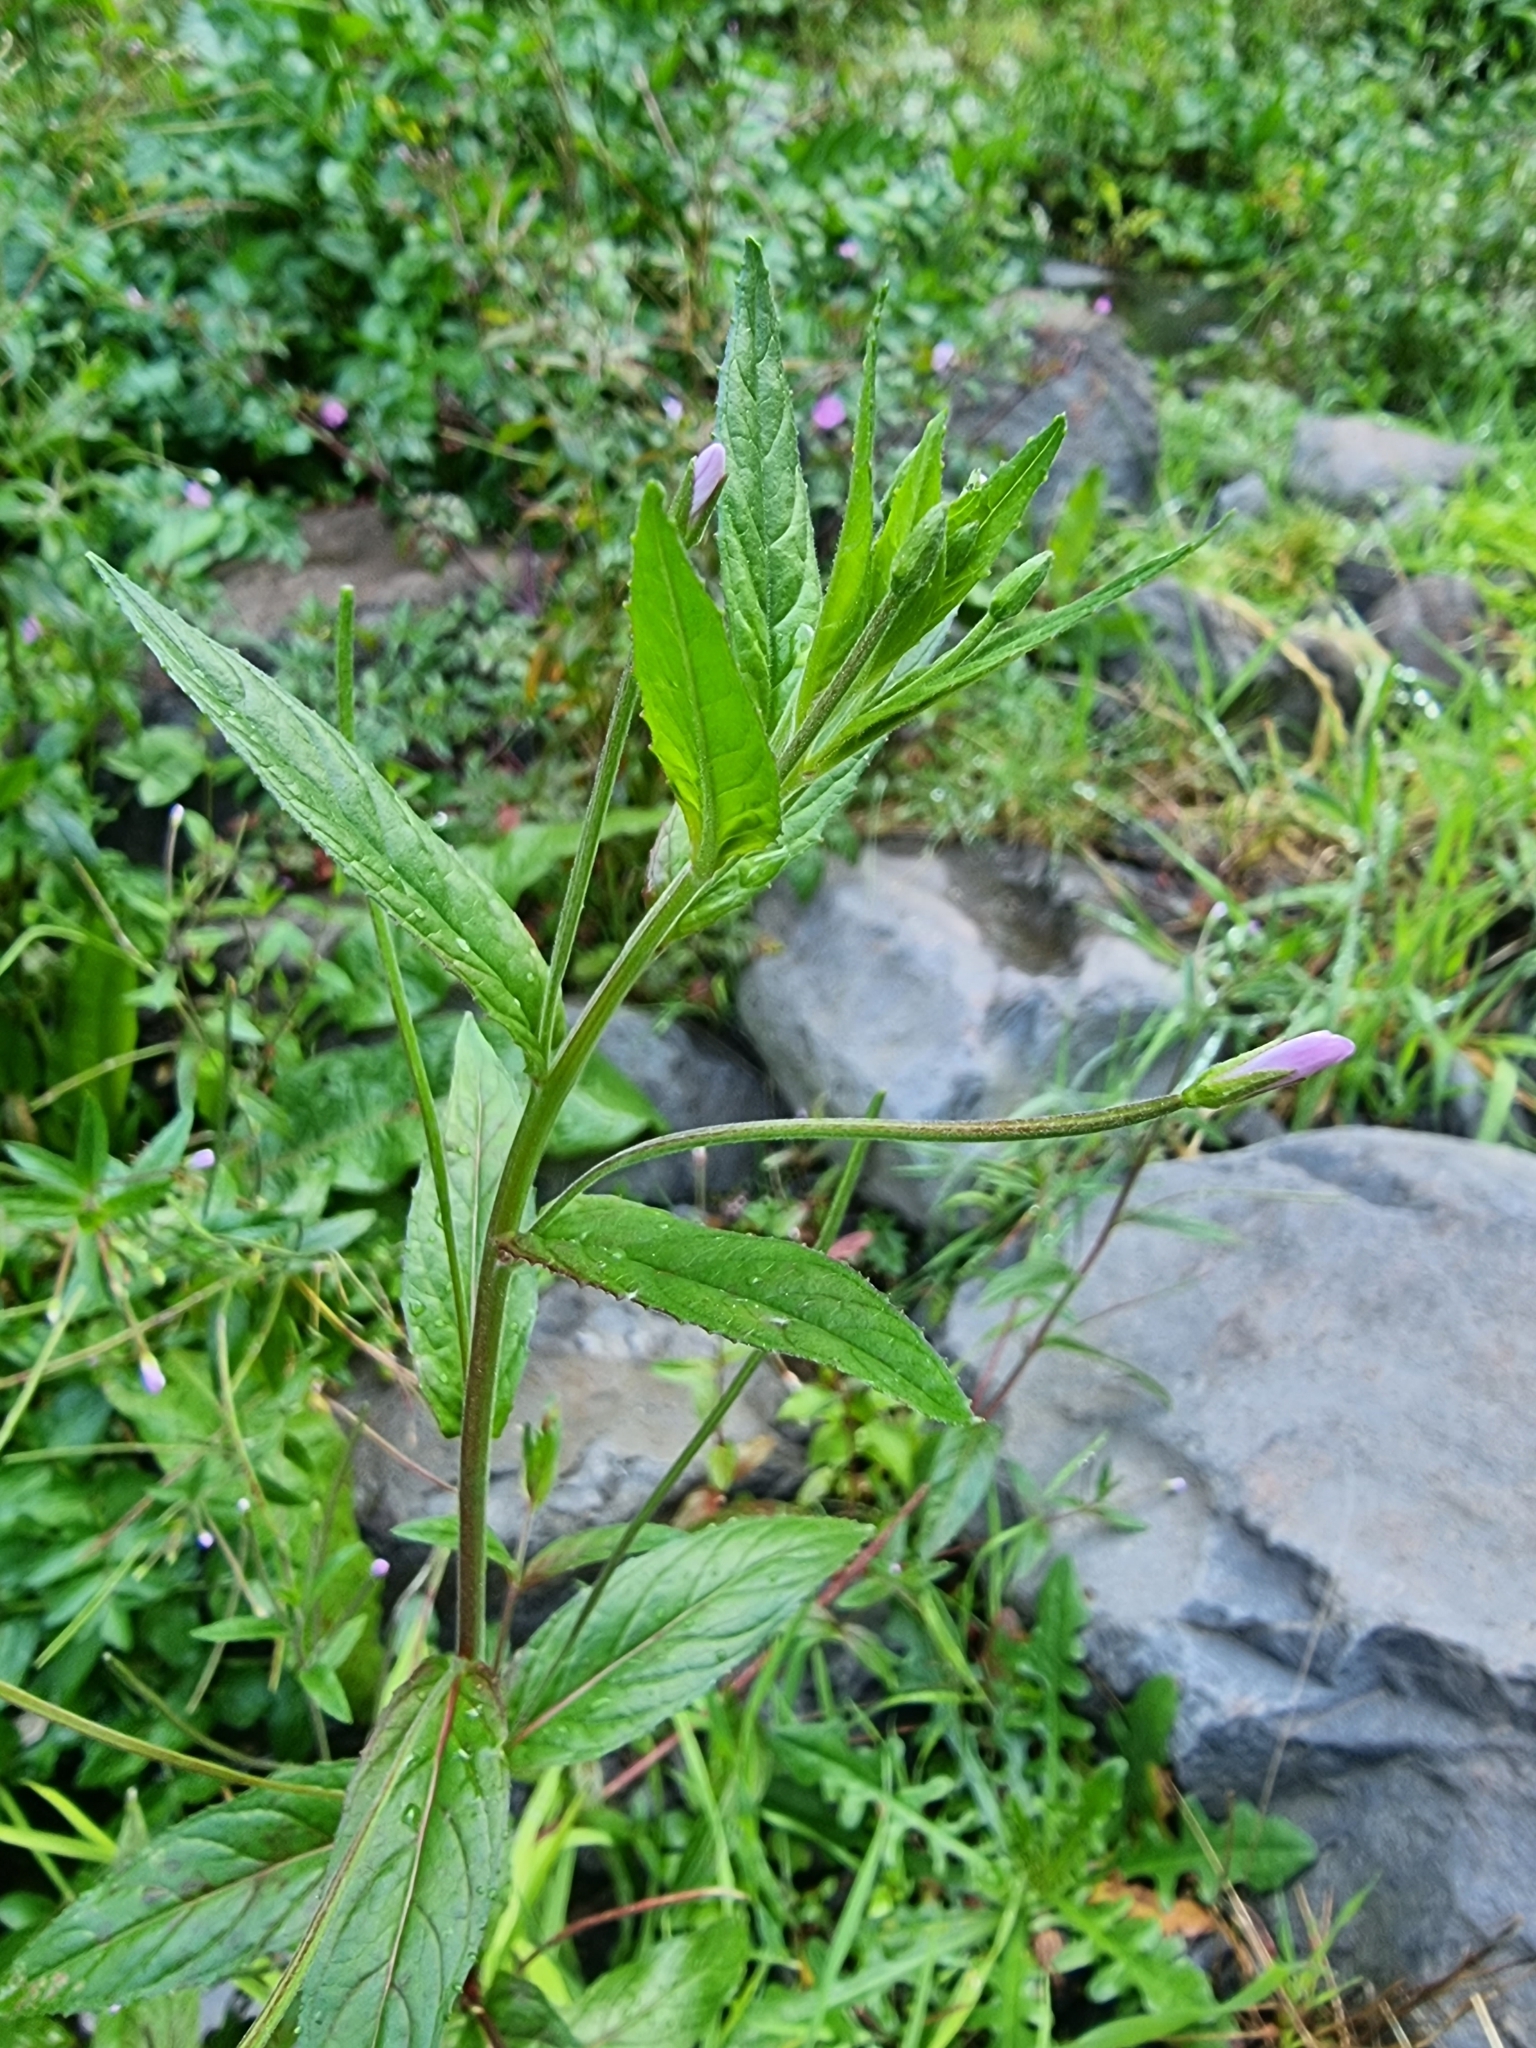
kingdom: Plantae
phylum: Tracheophyta
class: Magnoliopsida
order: Myrtales
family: Onagraceae
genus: Epilobium
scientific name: Epilobium parviflorum
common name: Hoary willowherb
